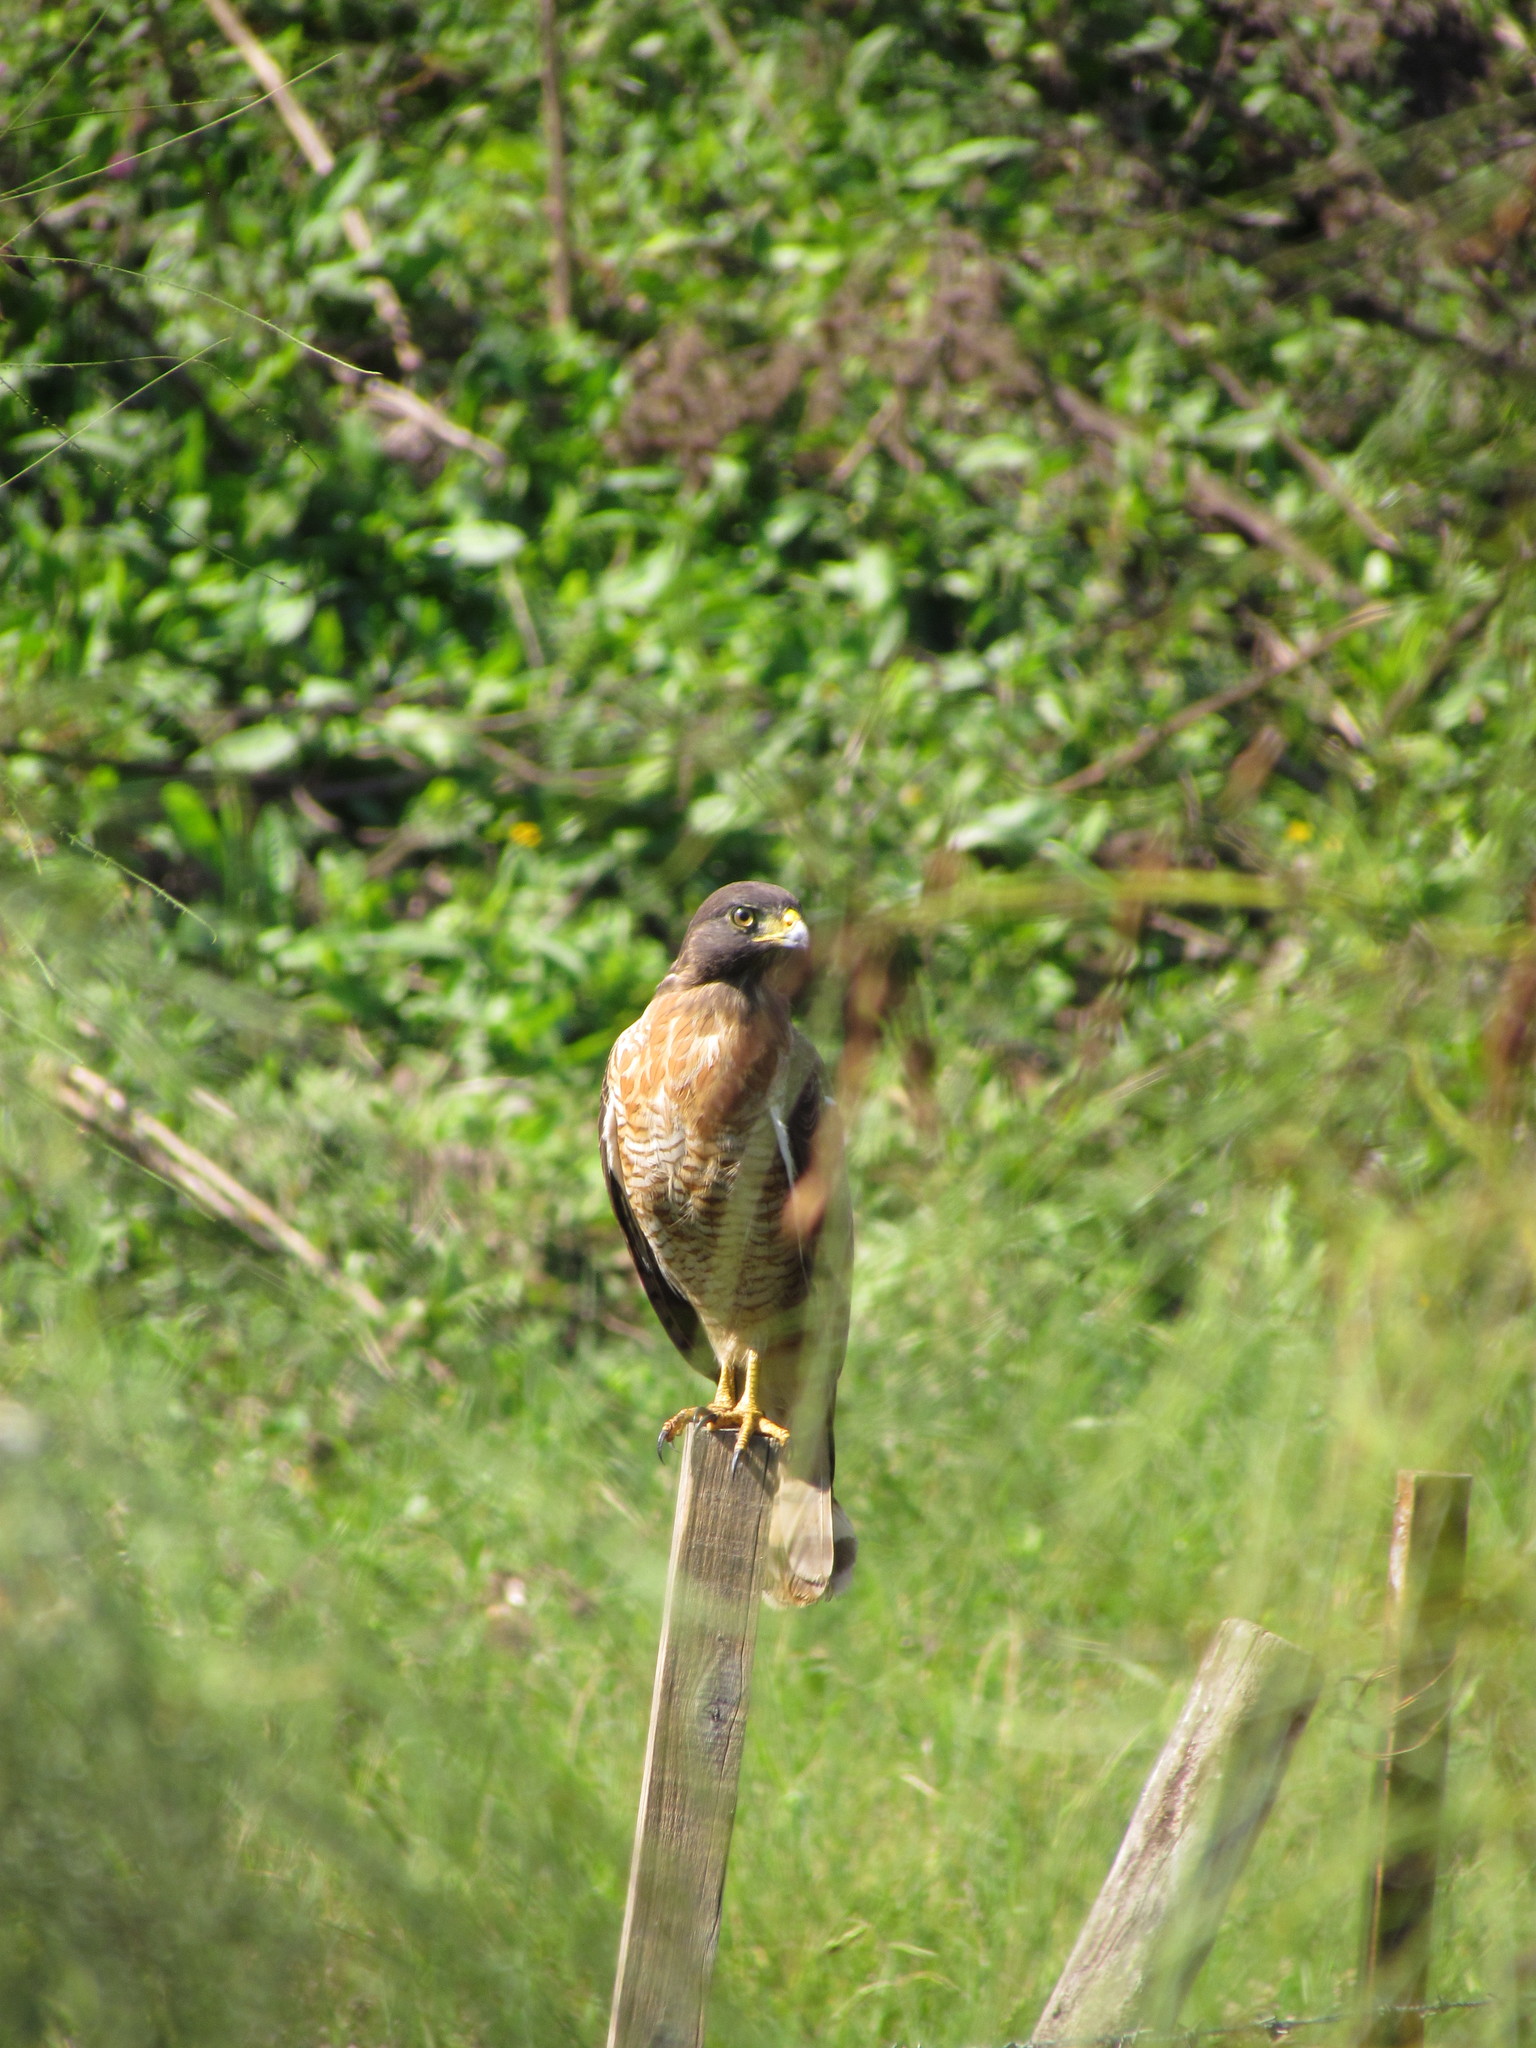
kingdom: Animalia
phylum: Chordata
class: Aves
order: Accipitriformes
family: Accipitridae
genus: Rupornis
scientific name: Rupornis magnirostris
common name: Roadside hawk
